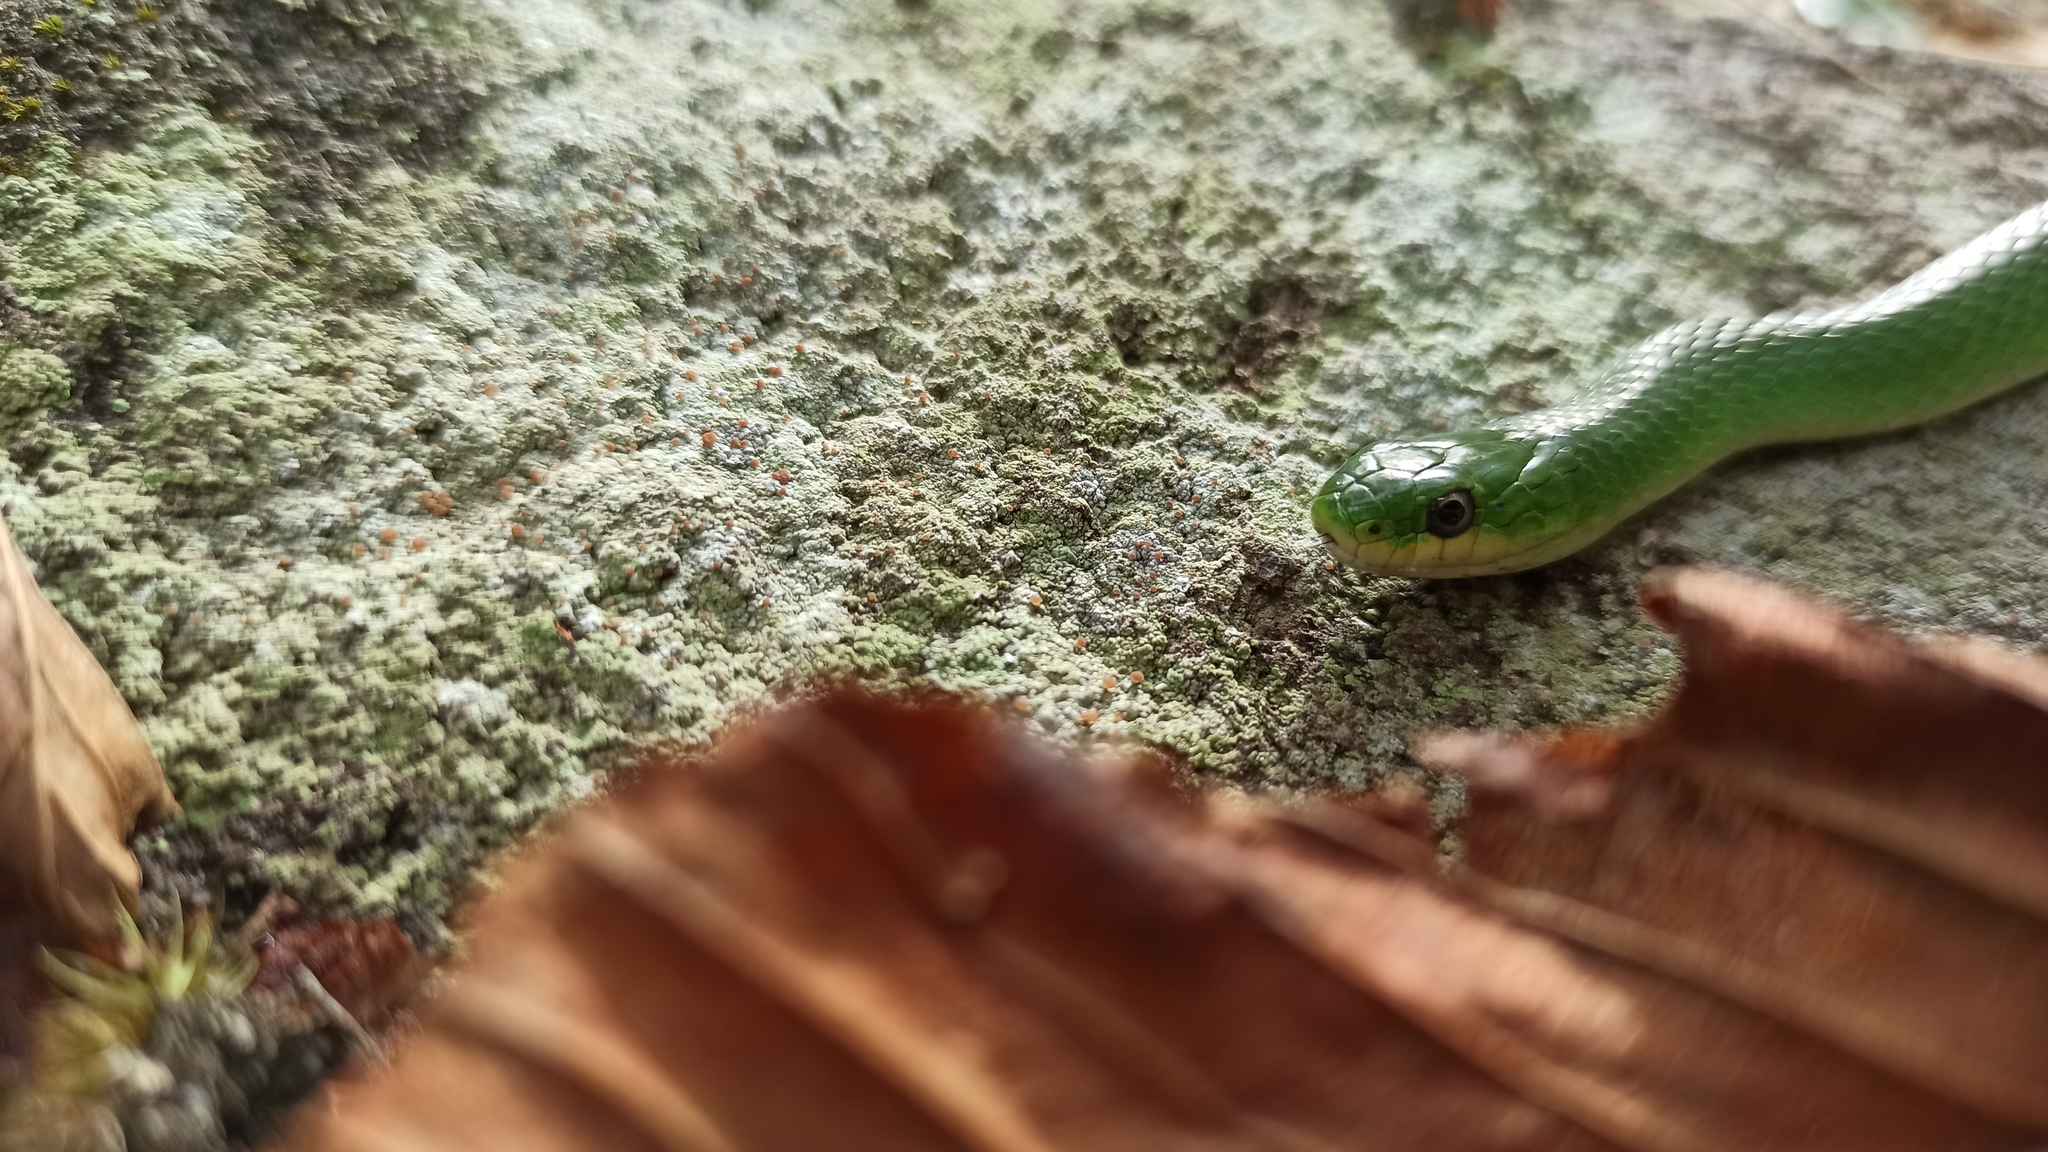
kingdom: Animalia
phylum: Chordata
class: Squamata
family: Colubridae
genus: Opheodrys
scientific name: Opheodrys vernalis
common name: Smooth green snake
